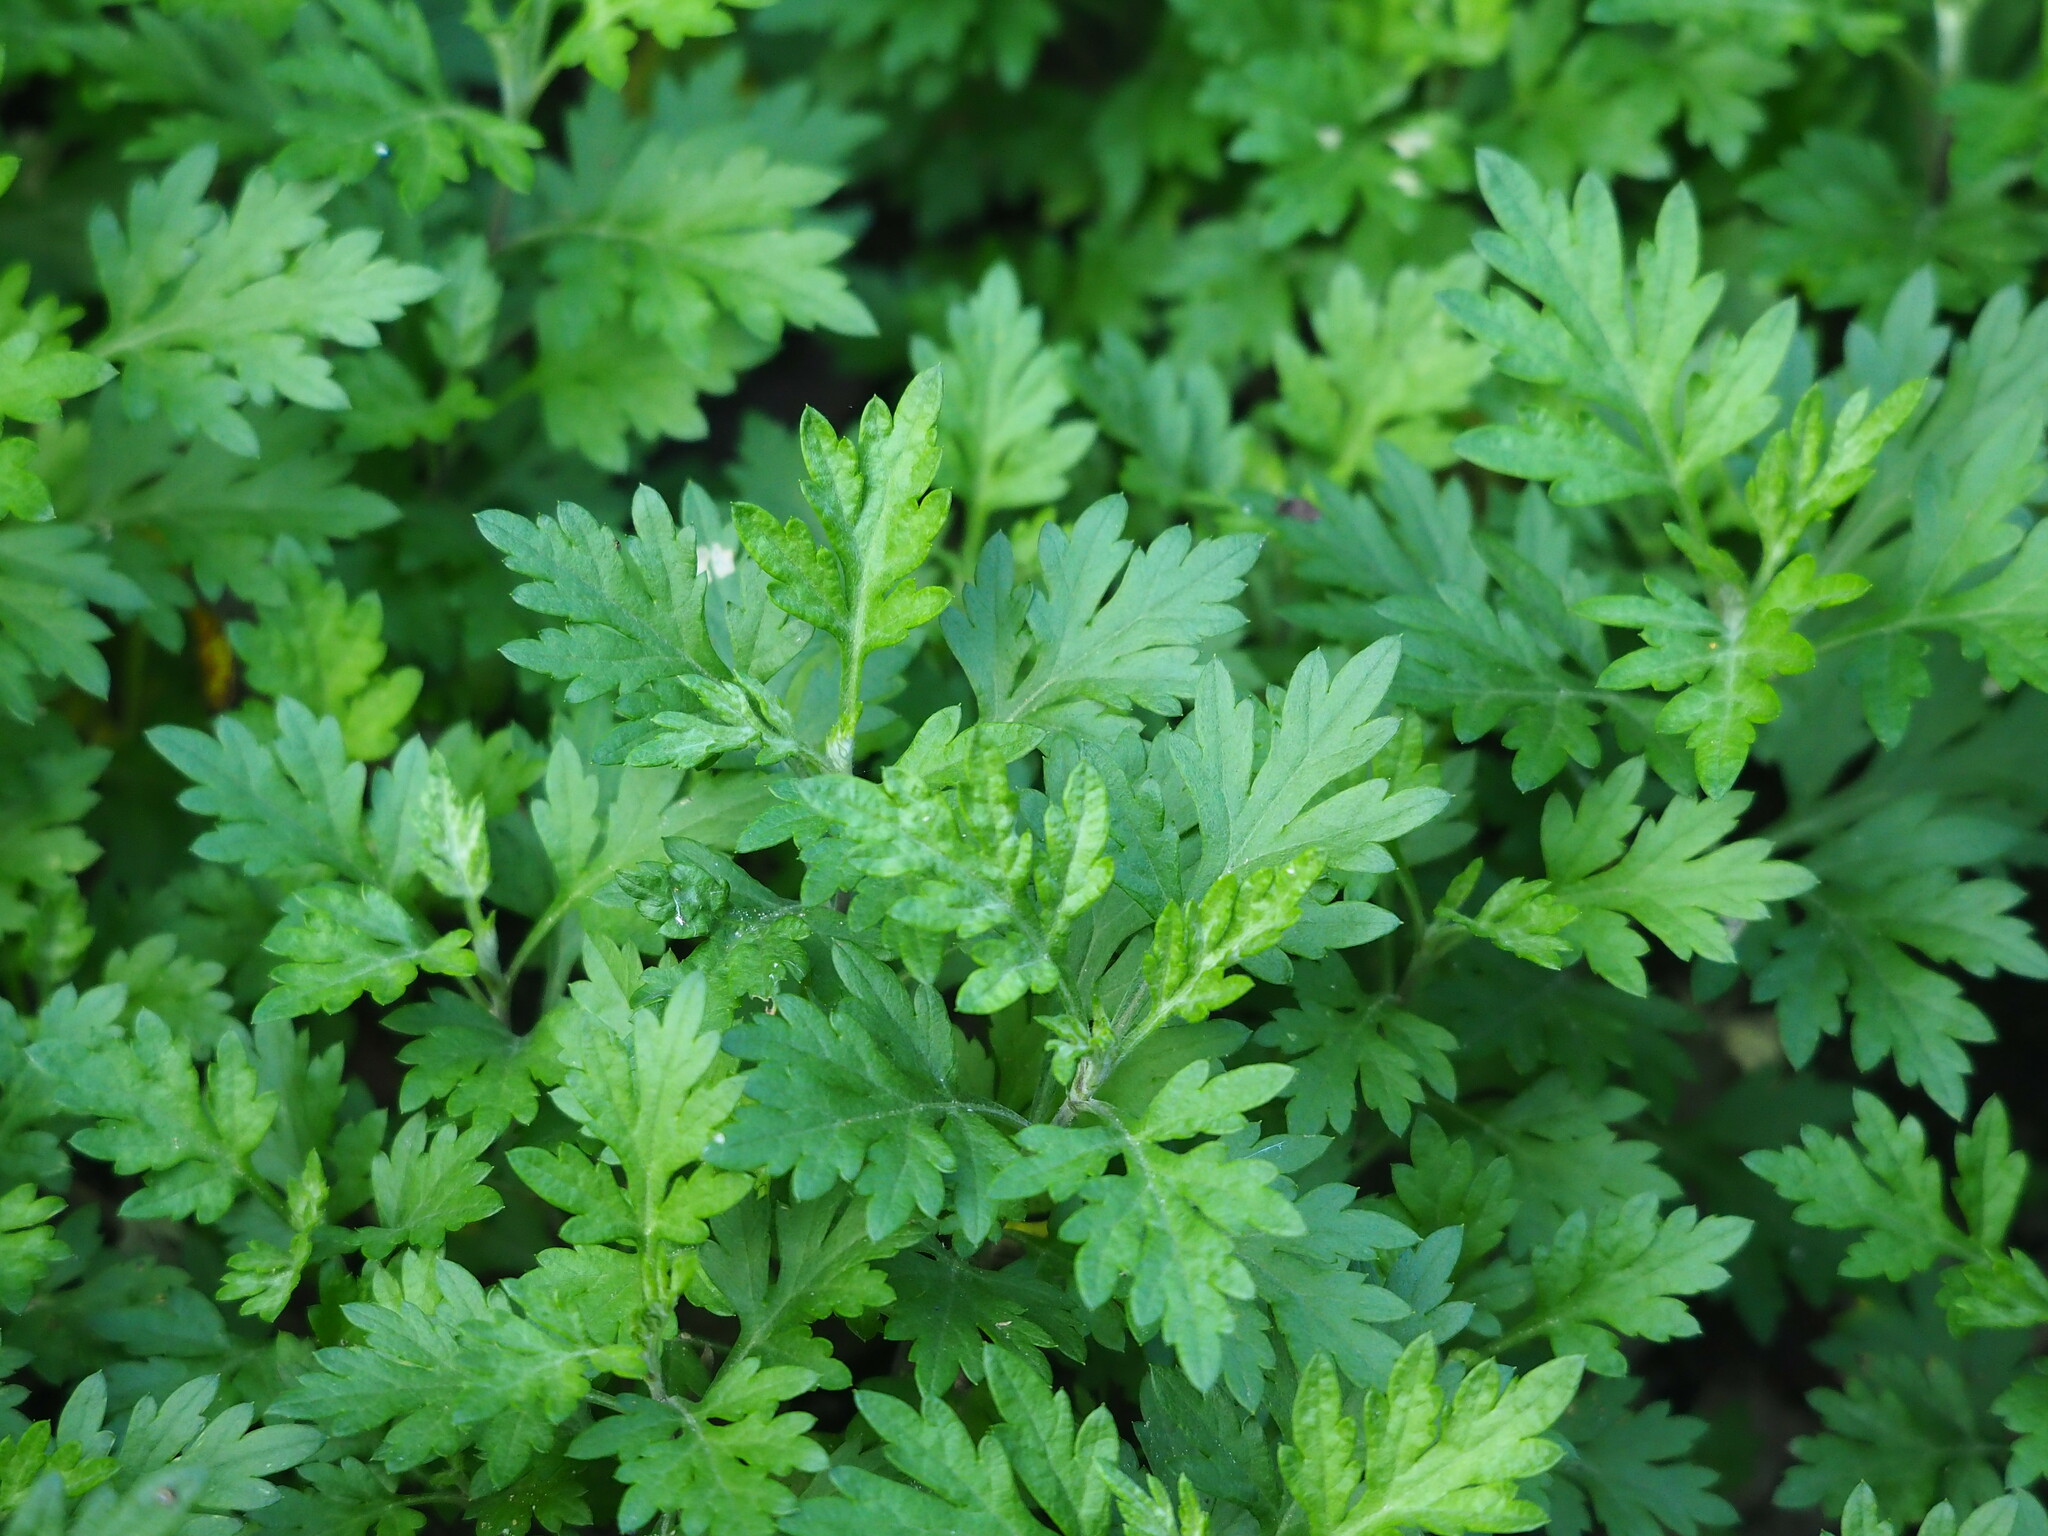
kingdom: Plantae
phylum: Tracheophyta
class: Magnoliopsida
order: Asterales
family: Asteraceae
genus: Artemisia
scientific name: Artemisia indica
